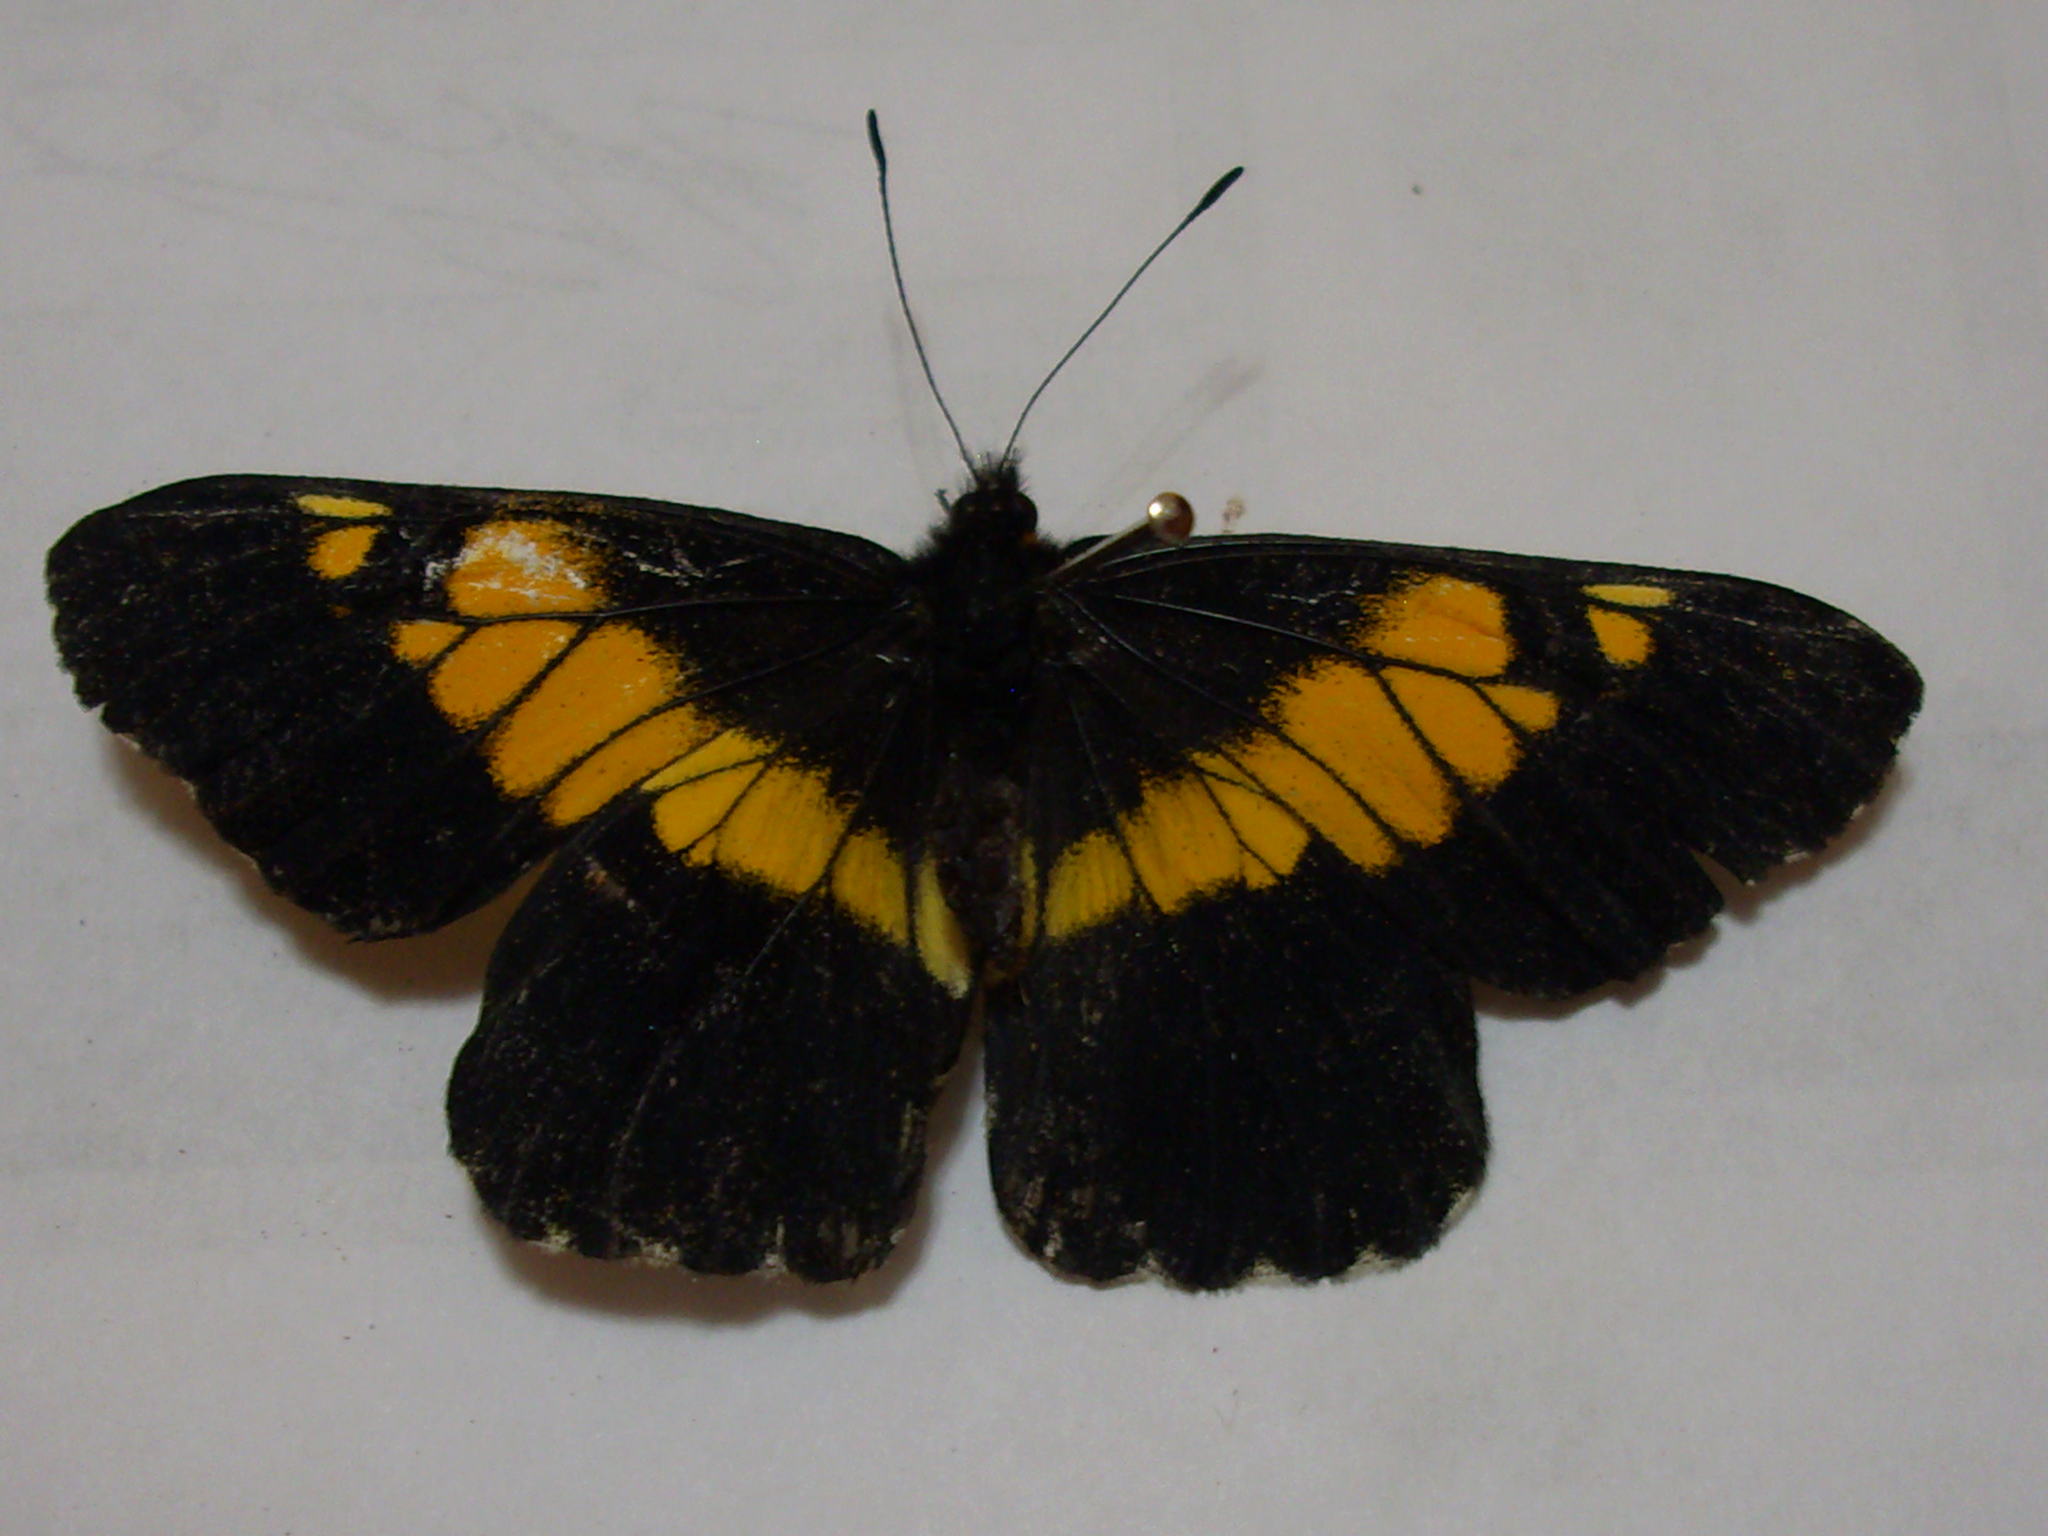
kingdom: Animalia
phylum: Arthropoda
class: Insecta
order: Lepidoptera
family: Pieridae
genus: Archonias
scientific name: Archonias teutila
